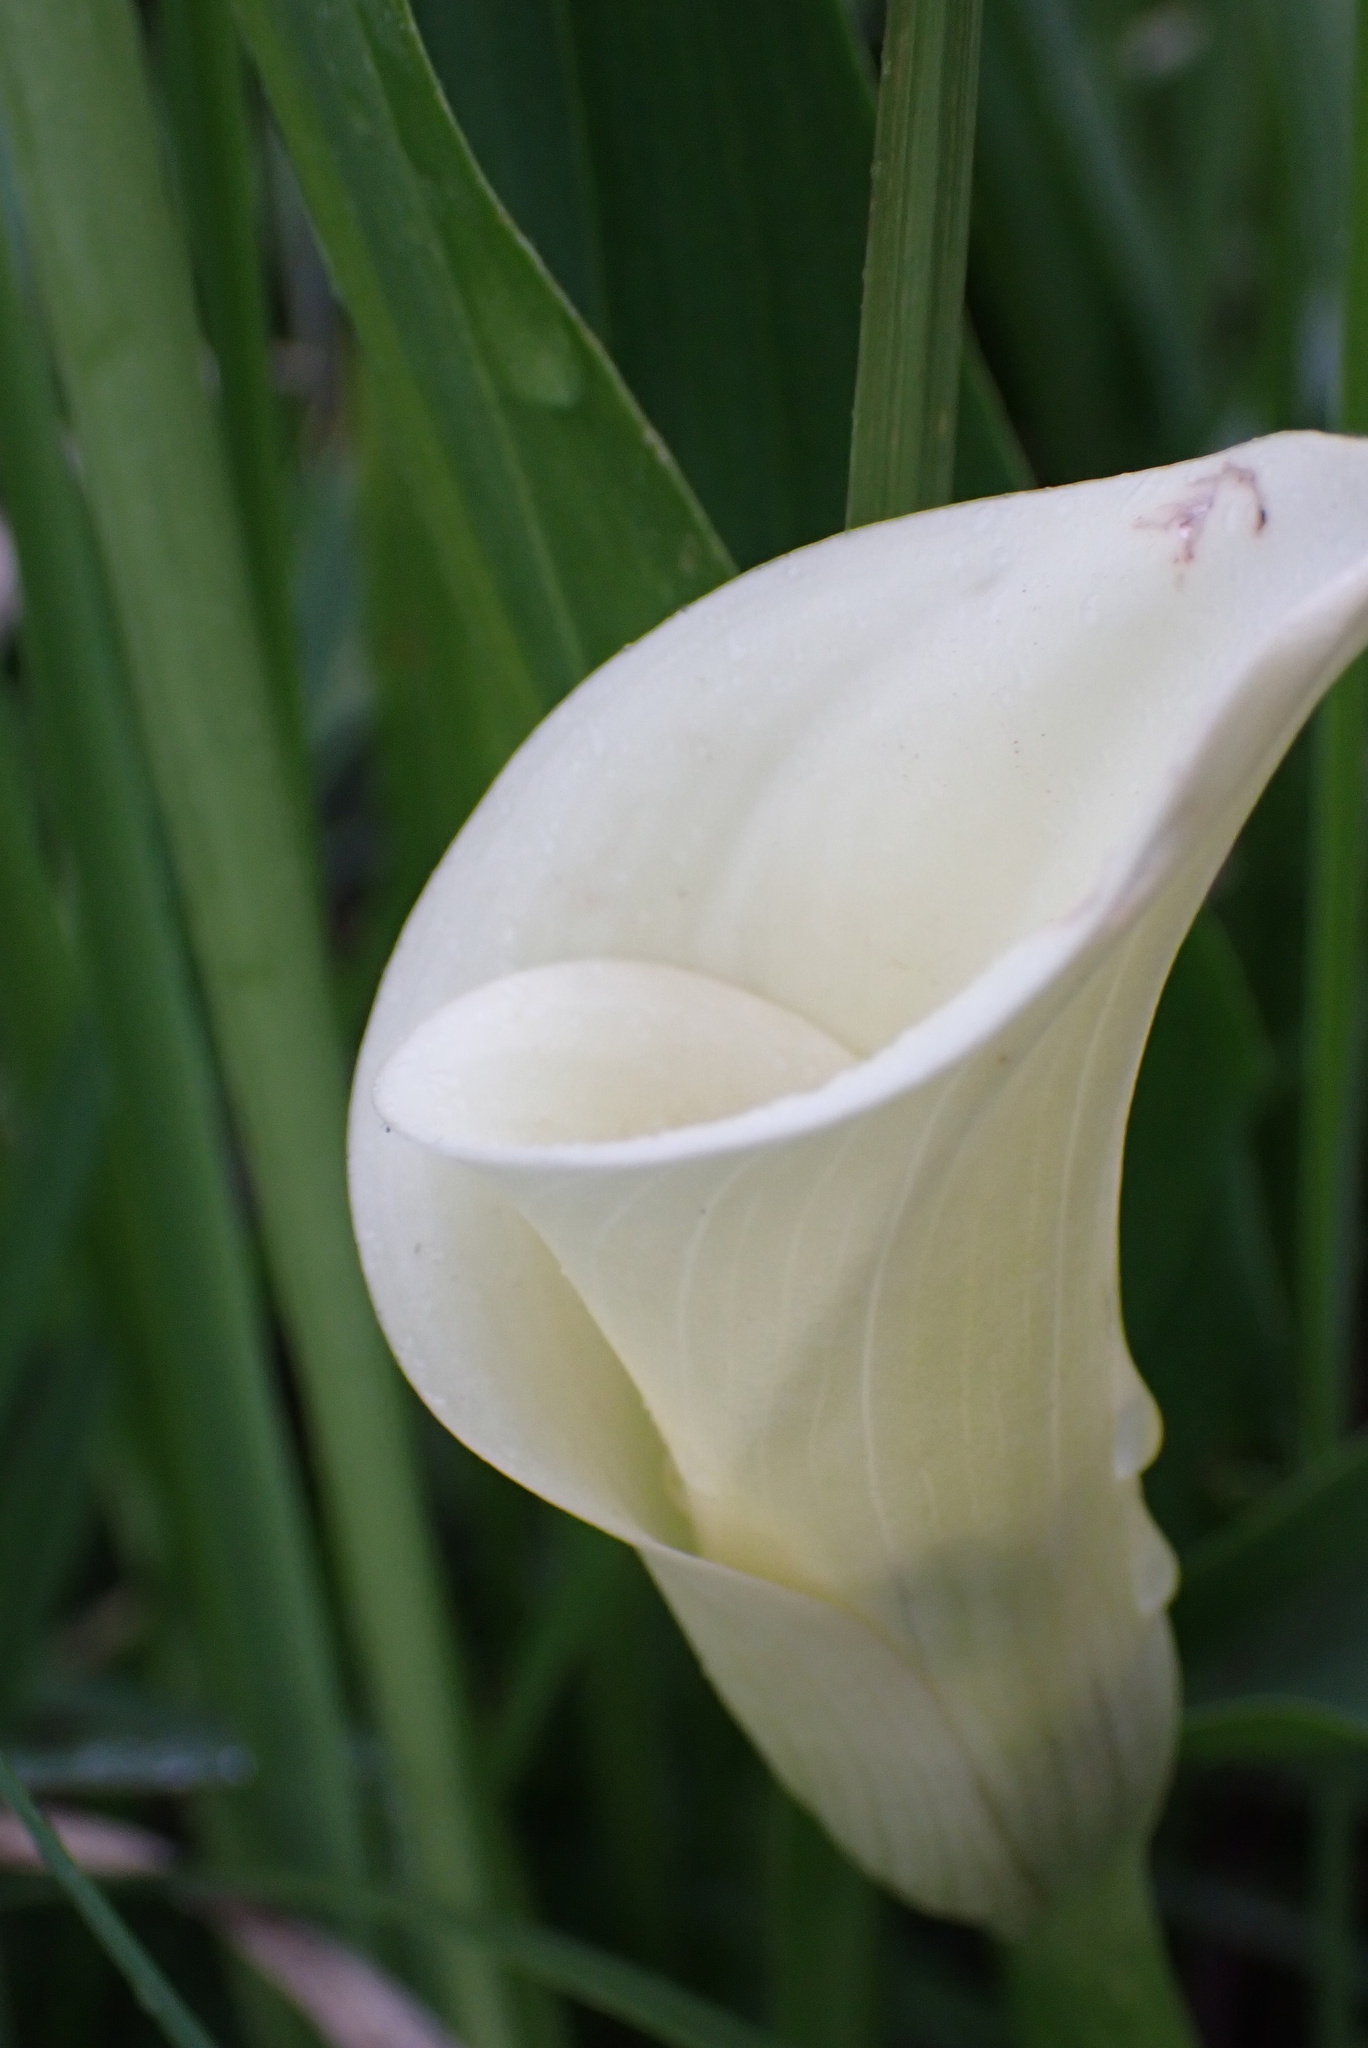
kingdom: Plantae
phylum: Tracheophyta
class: Liliopsida
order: Alismatales
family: Araceae
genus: Zantedeschia
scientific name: Zantedeschia albomaculata
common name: Spotted calla lily
